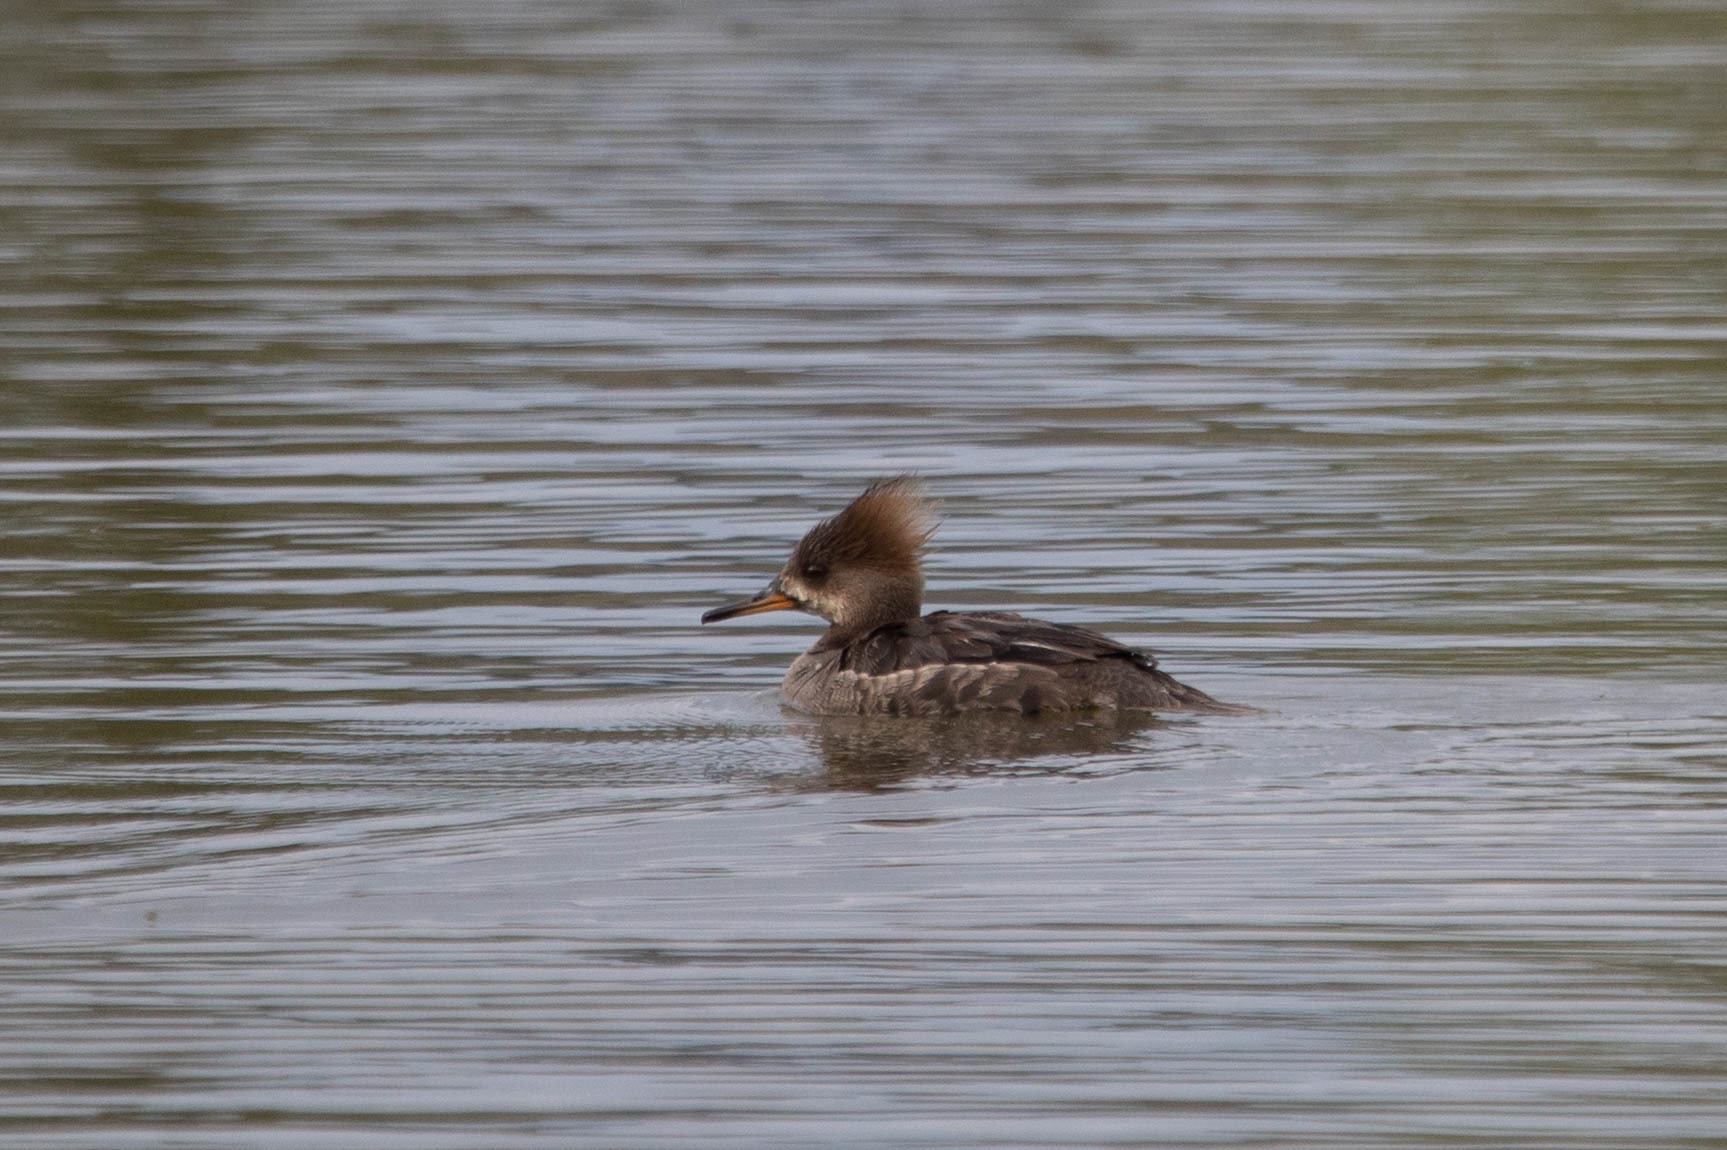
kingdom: Animalia
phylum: Chordata
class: Aves
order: Anseriformes
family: Anatidae
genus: Lophodytes
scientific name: Lophodytes cucullatus
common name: Hooded merganser
